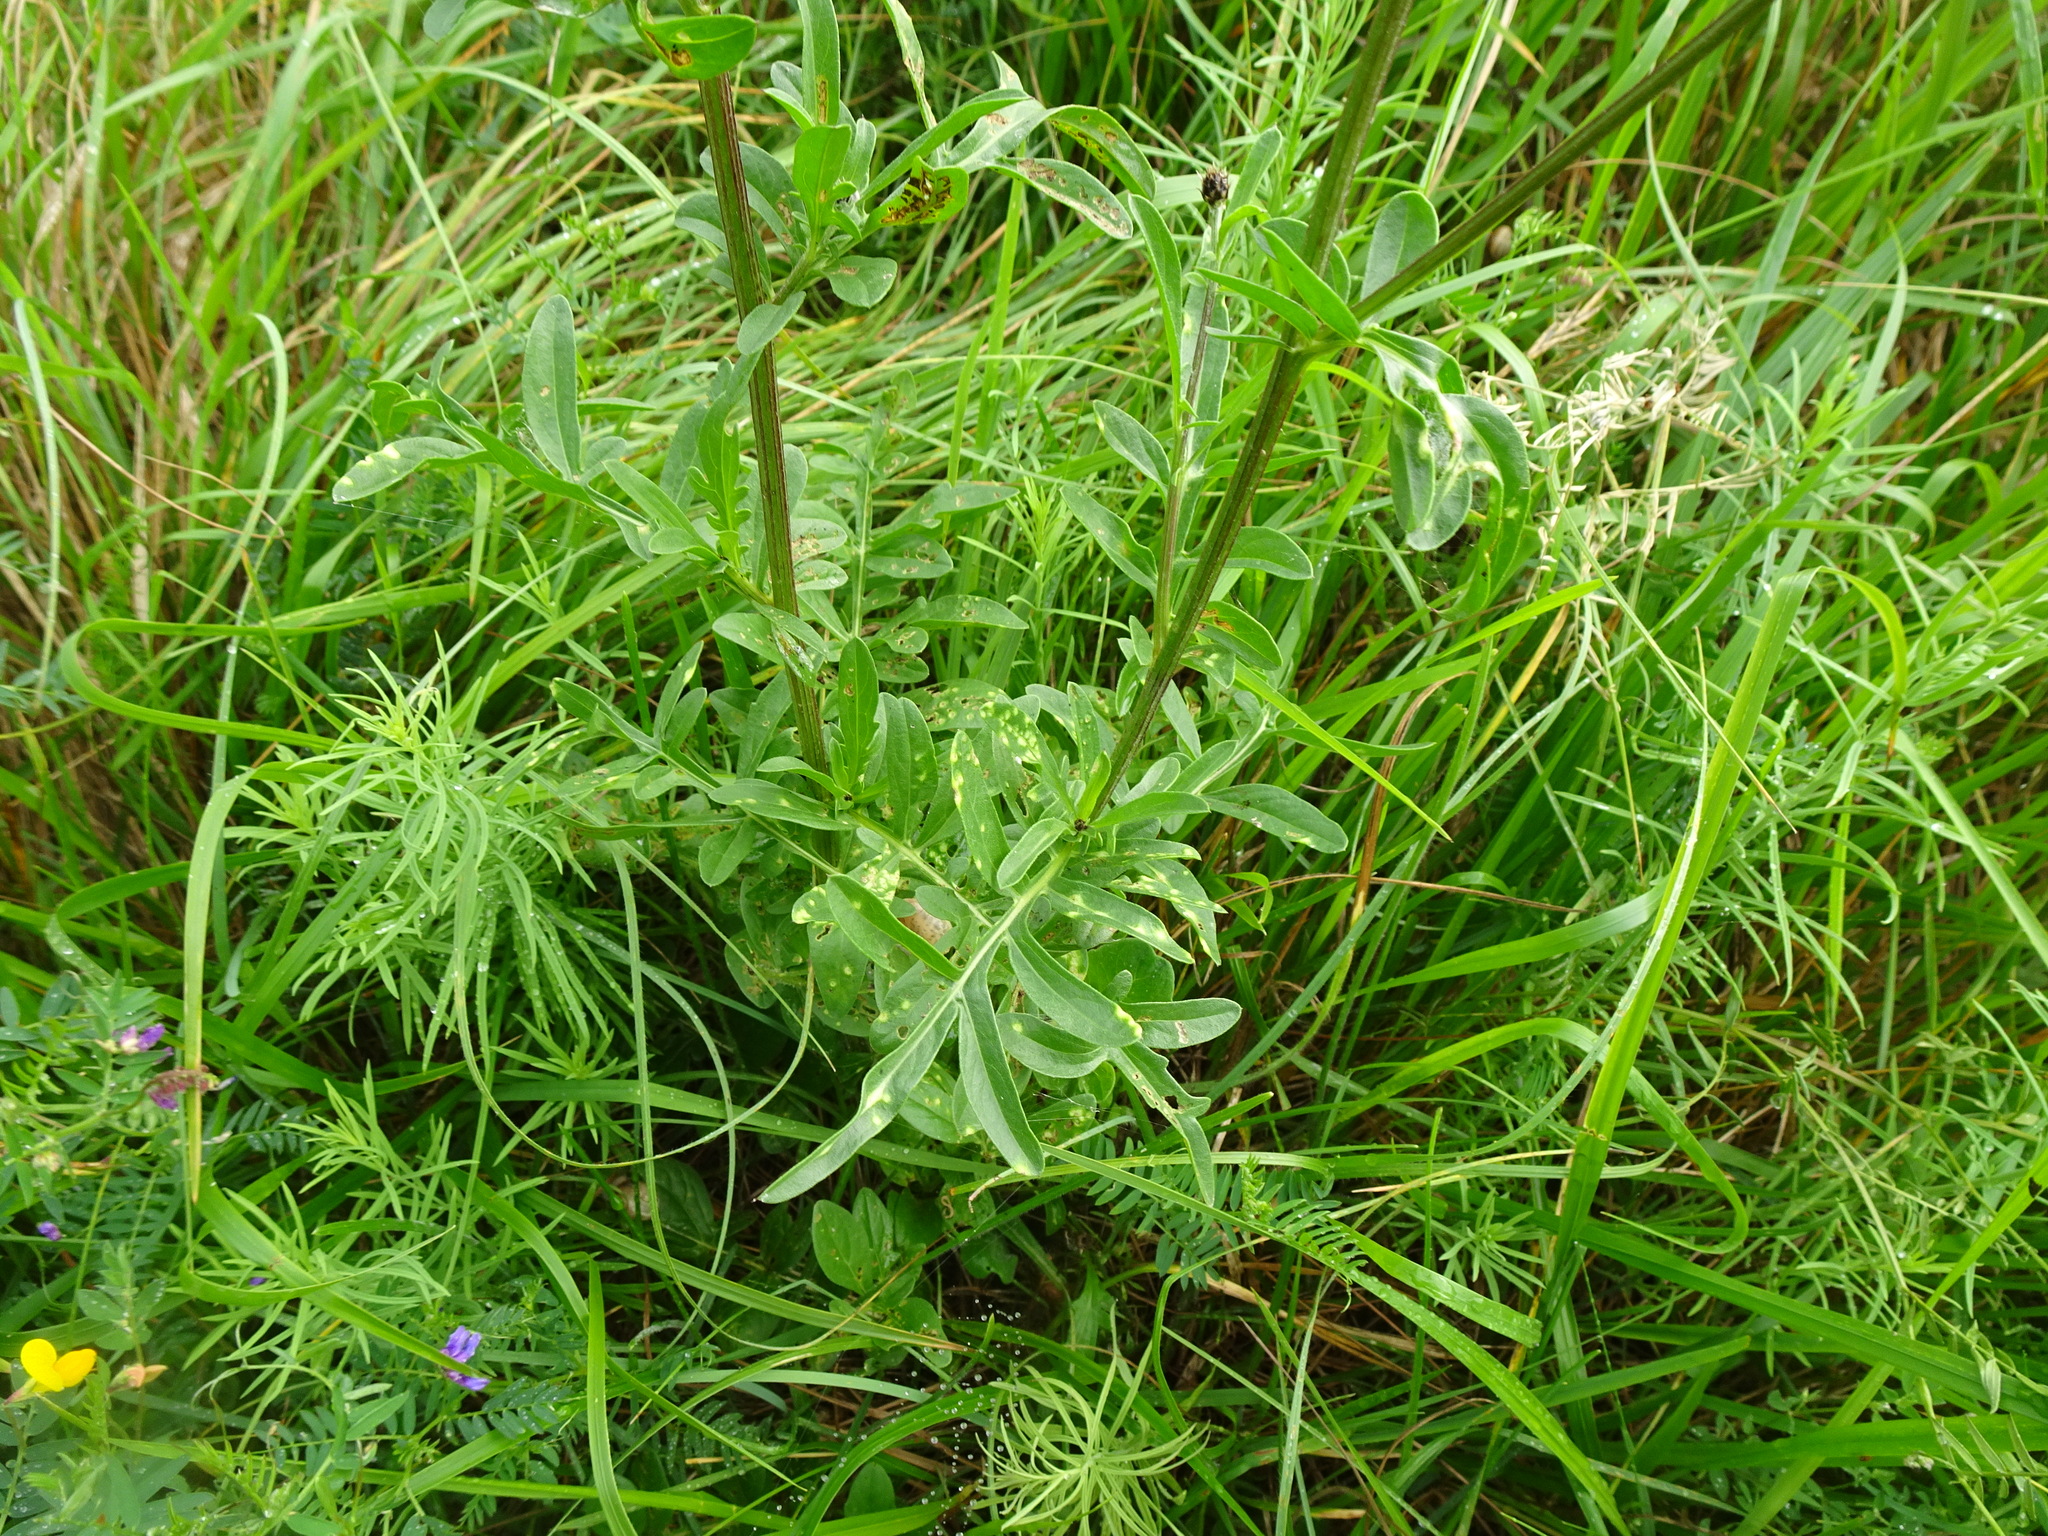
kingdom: Plantae
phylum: Tracheophyta
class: Magnoliopsida
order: Asterales
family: Asteraceae
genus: Centaurea
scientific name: Centaurea scabiosa
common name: Greater knapweed
